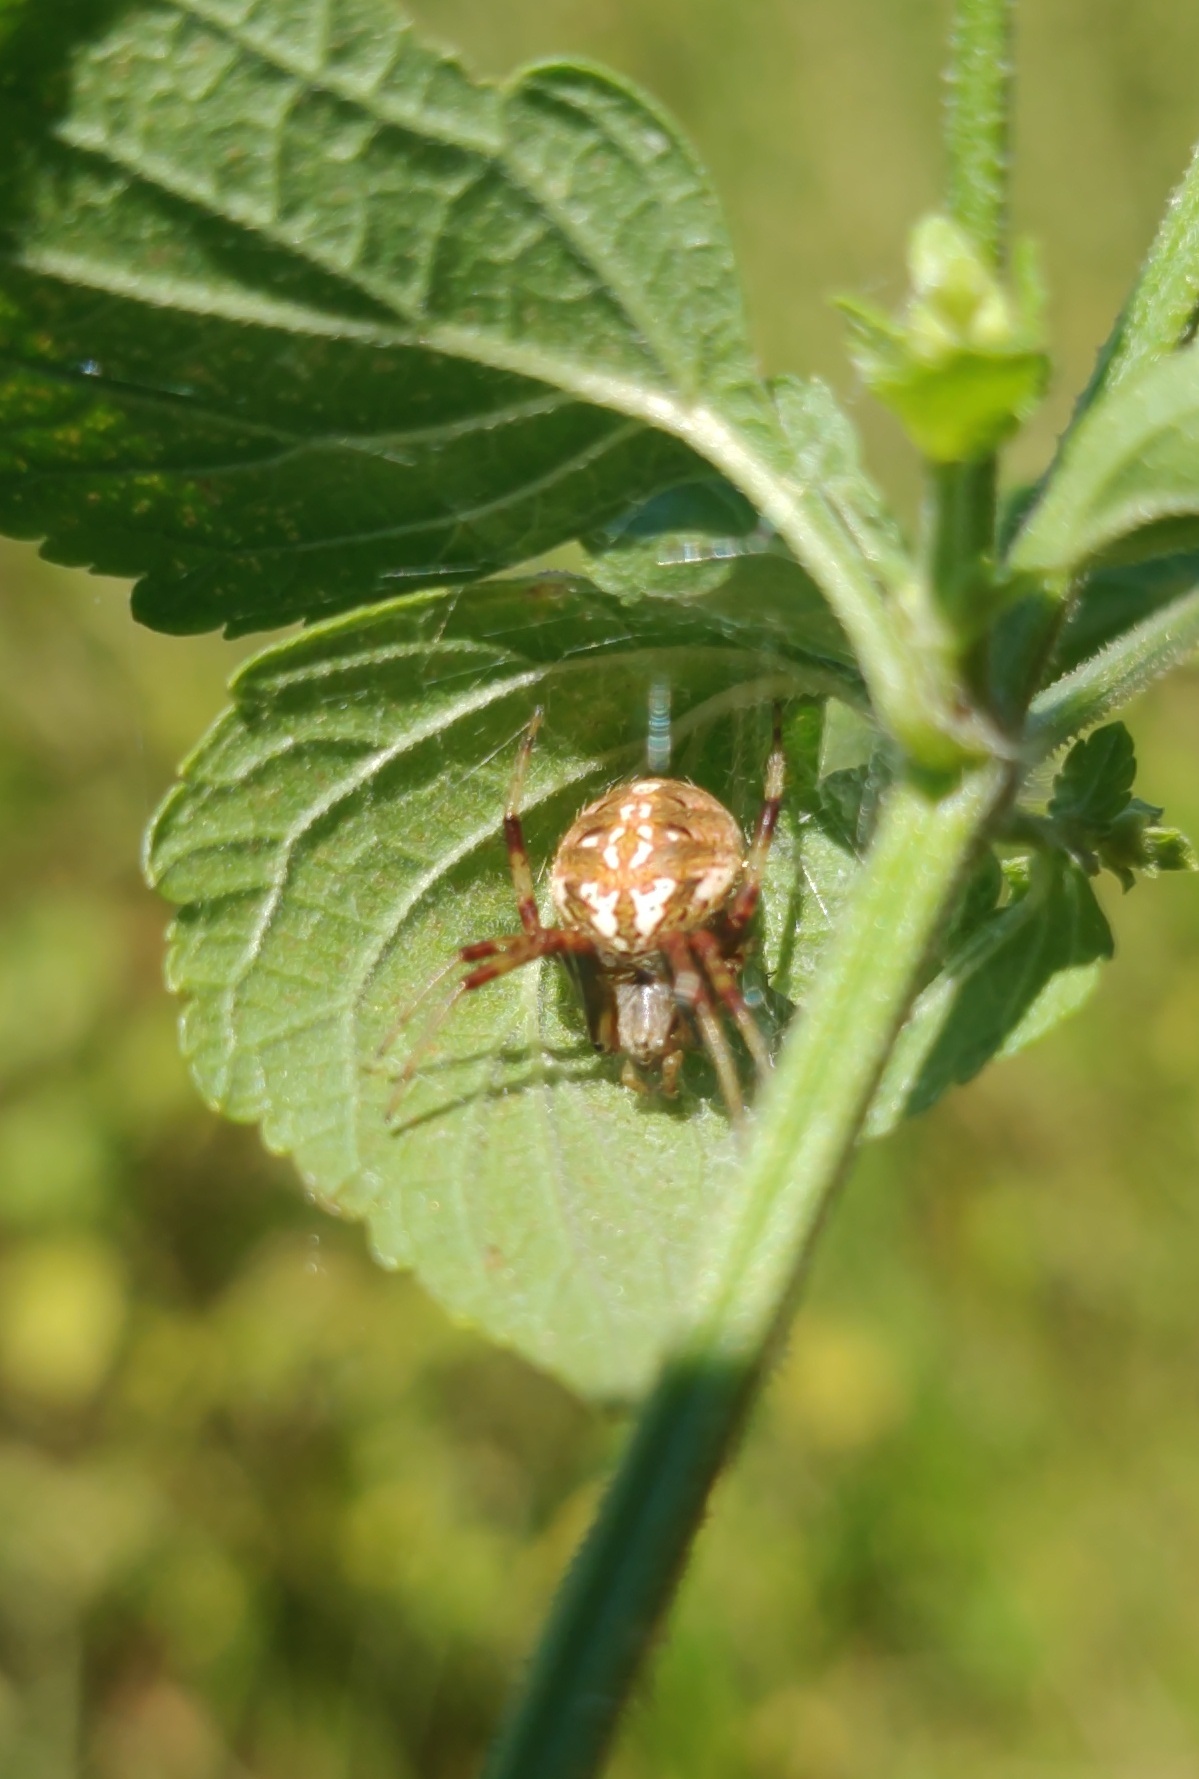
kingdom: Animalia
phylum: Arthropoda
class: Arachnida
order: Araneae
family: Araneidae
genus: Neoscona
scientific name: Neoscona arabesca
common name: Orb weavers
